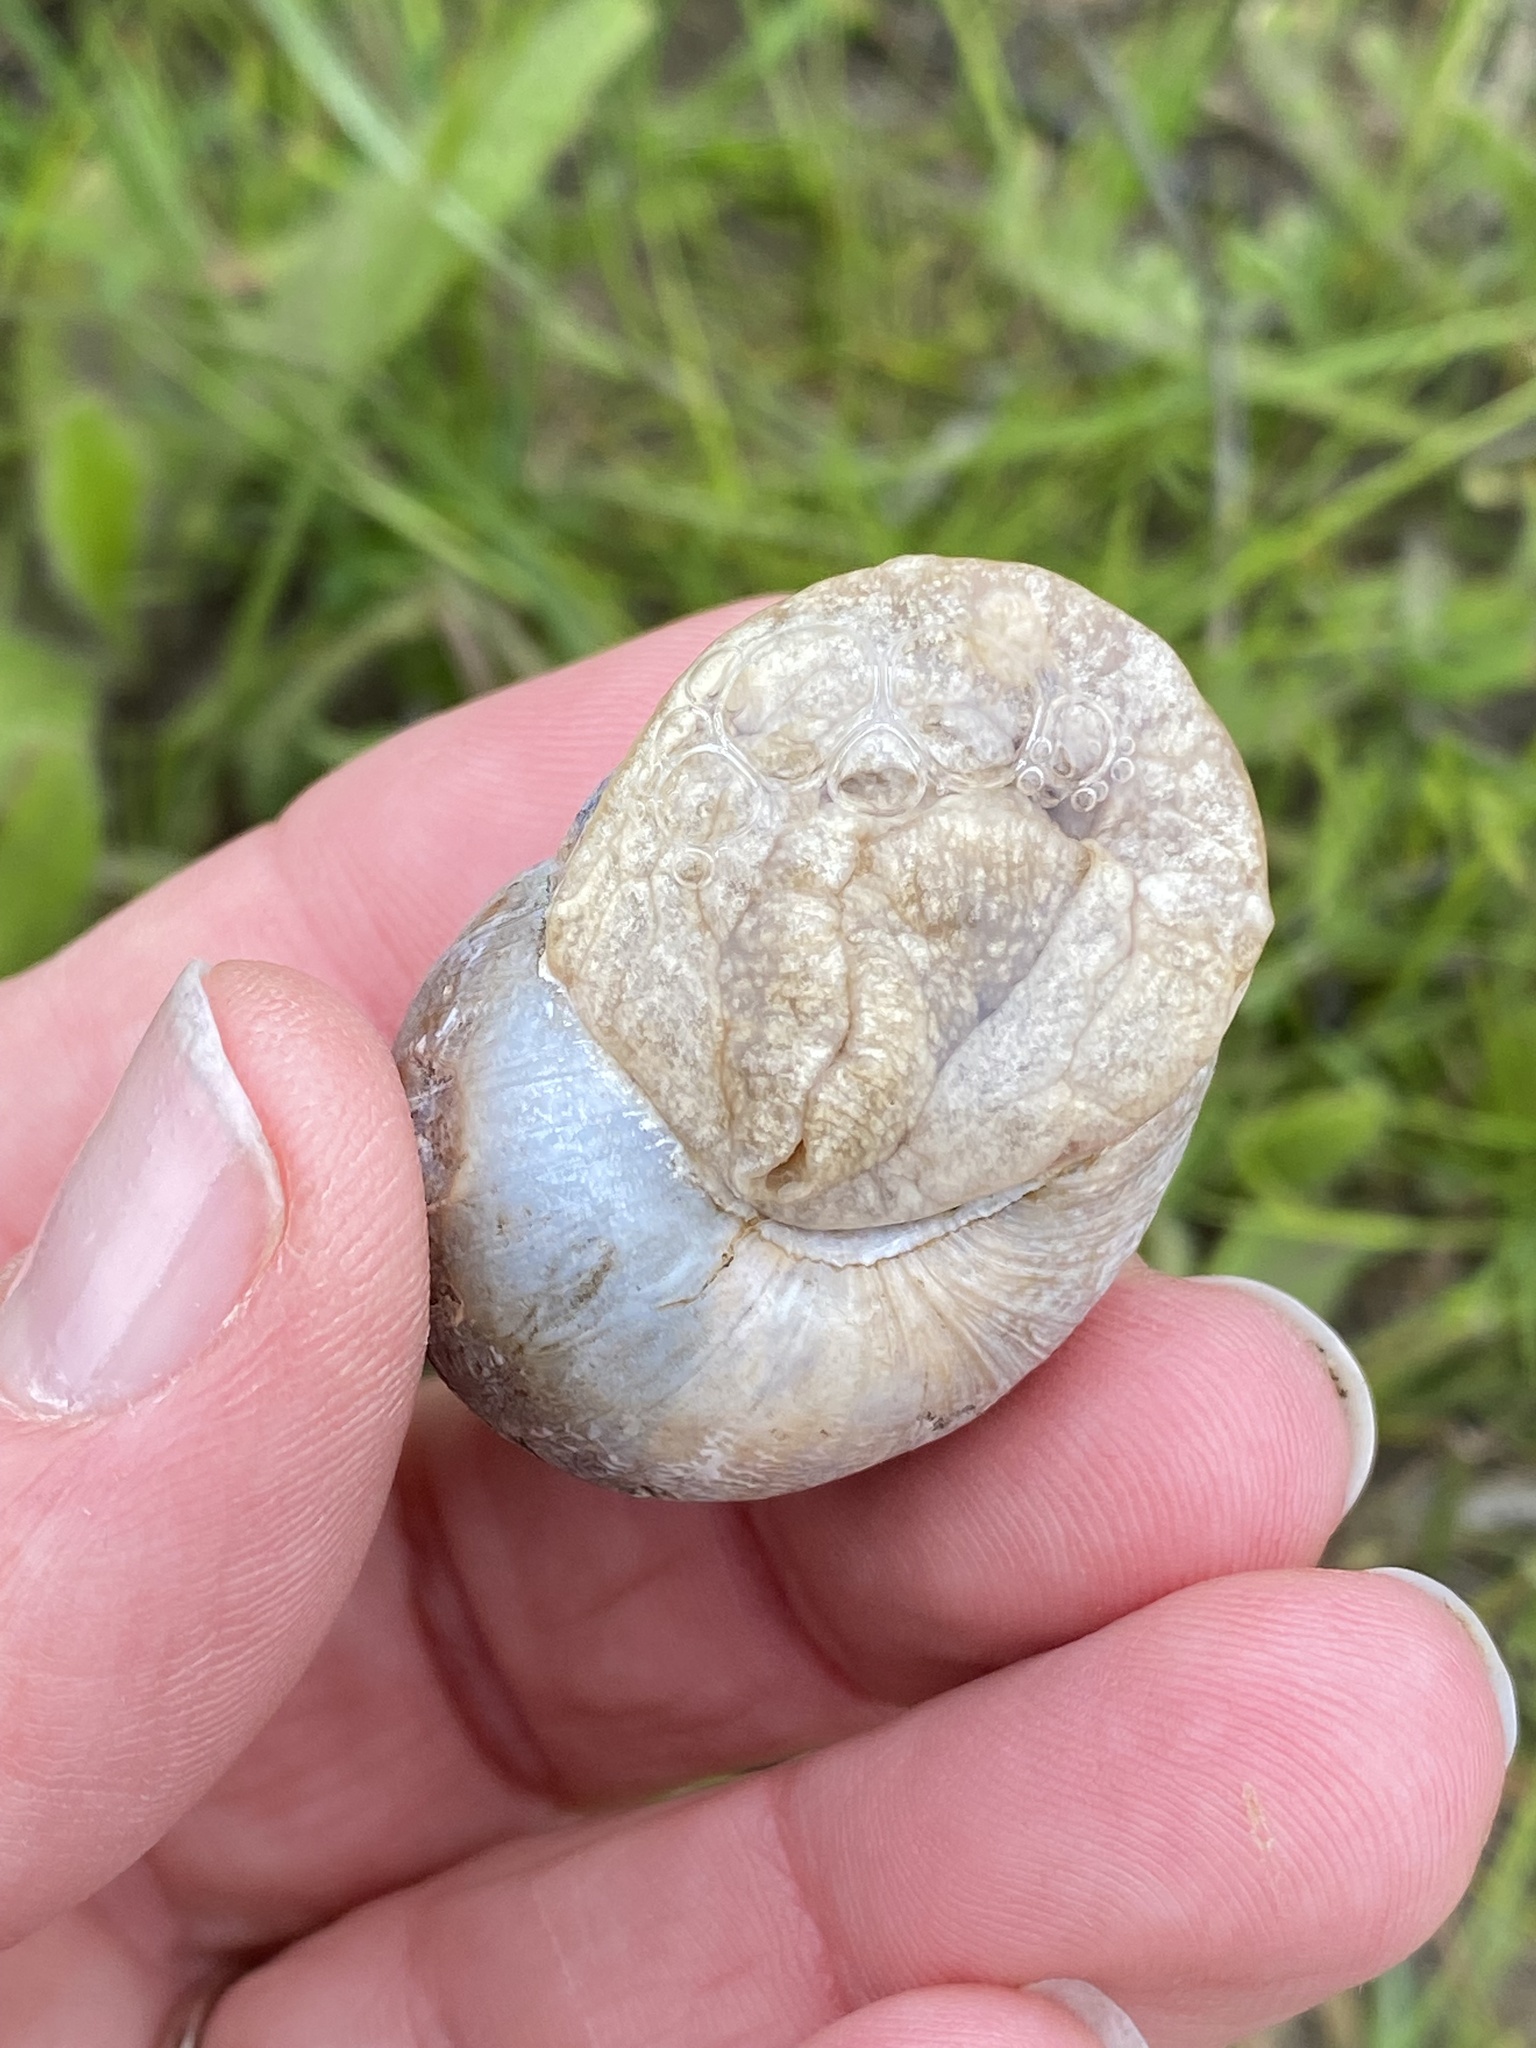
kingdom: Animalia
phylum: Mollusca
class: Gastropoda
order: Stylommatophora
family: Helicidae
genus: Cornu
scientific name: Cornu aspersum
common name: Brown garden snail
